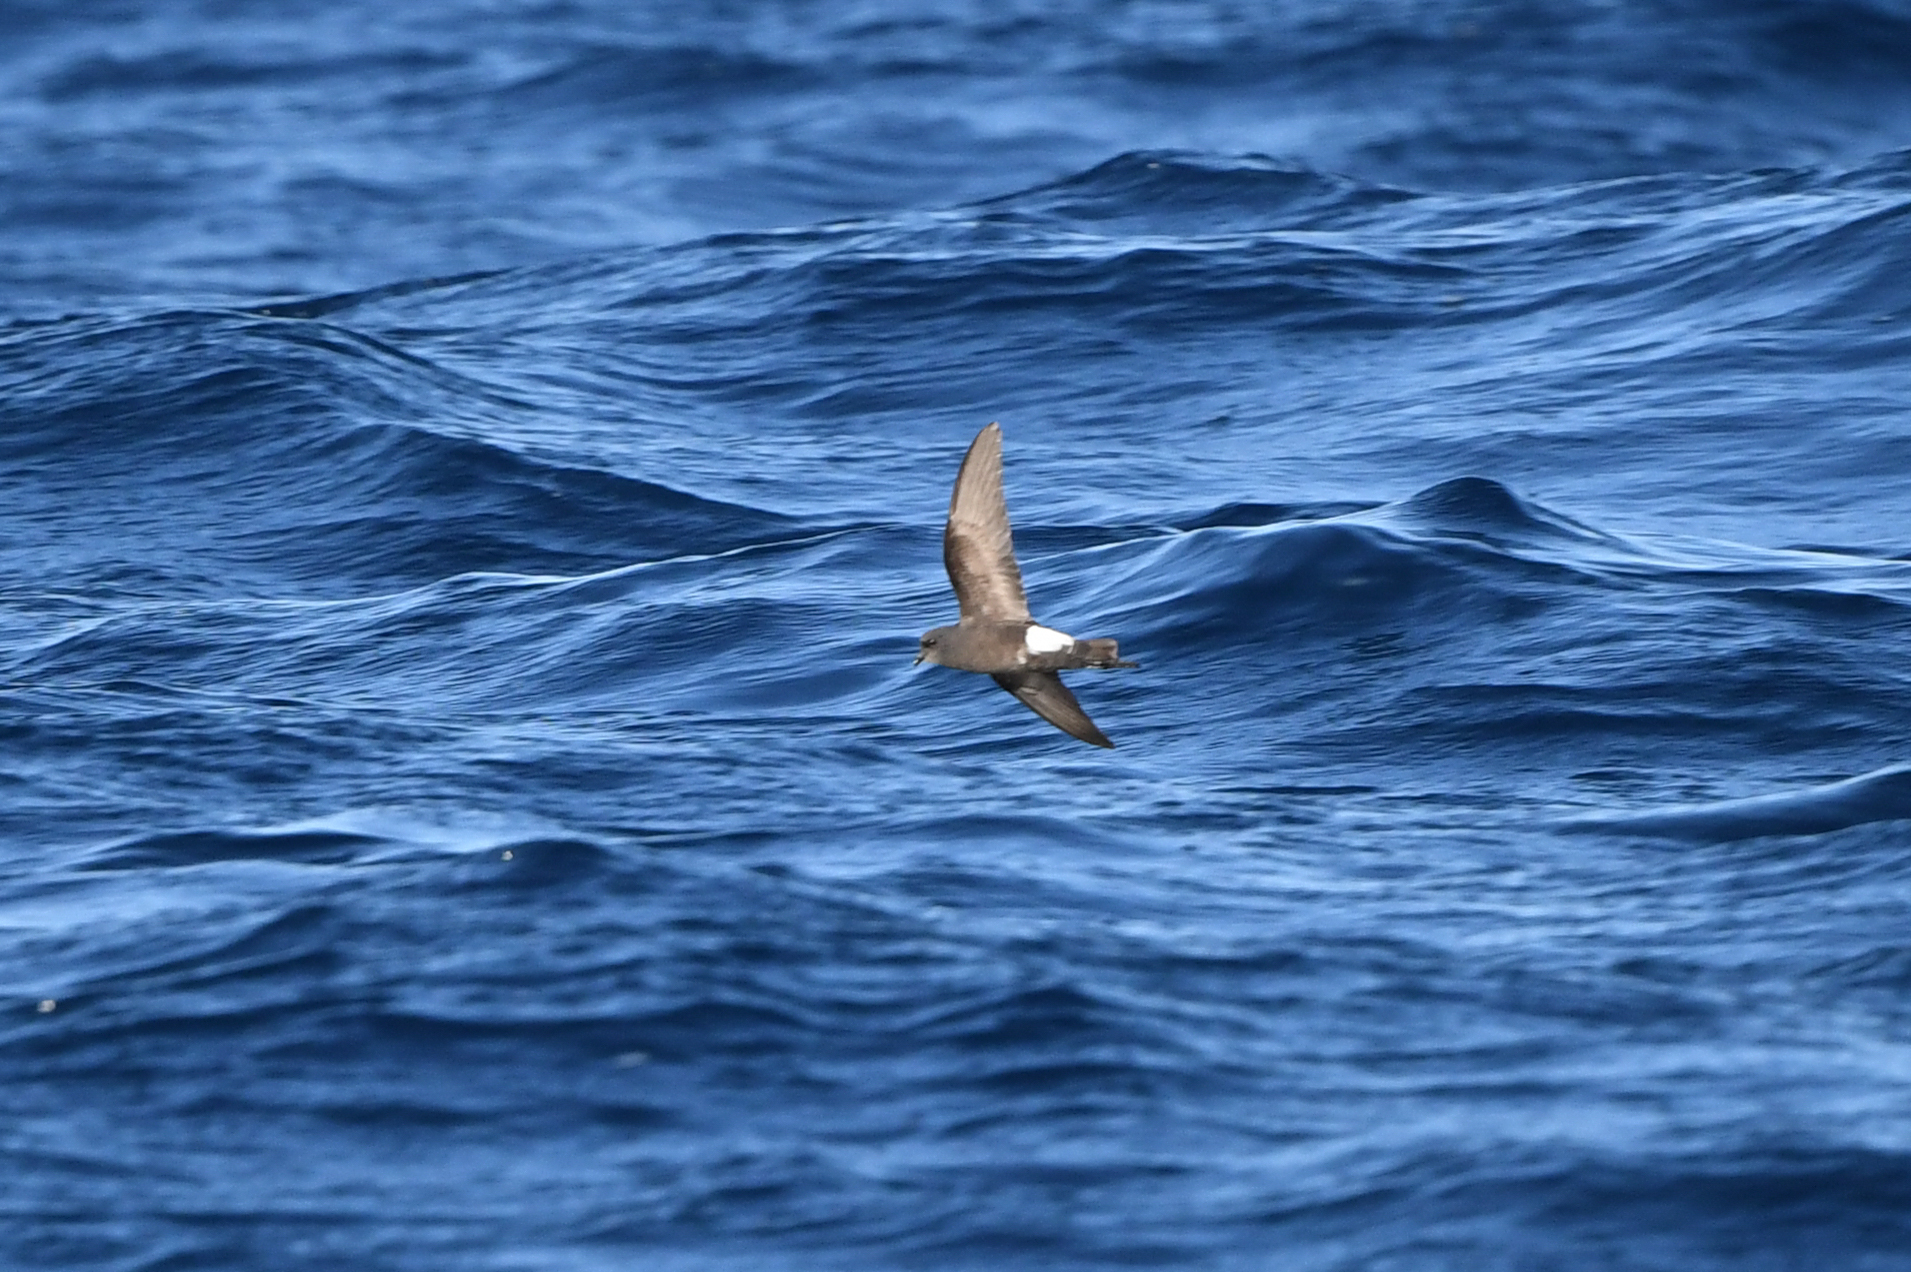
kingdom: Animalia
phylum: Chordata
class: Aves
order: Procellariiformes
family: Hydrobatidae
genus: Oceanites
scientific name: Oceanites oceanicus
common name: Wilson's storm petrel
